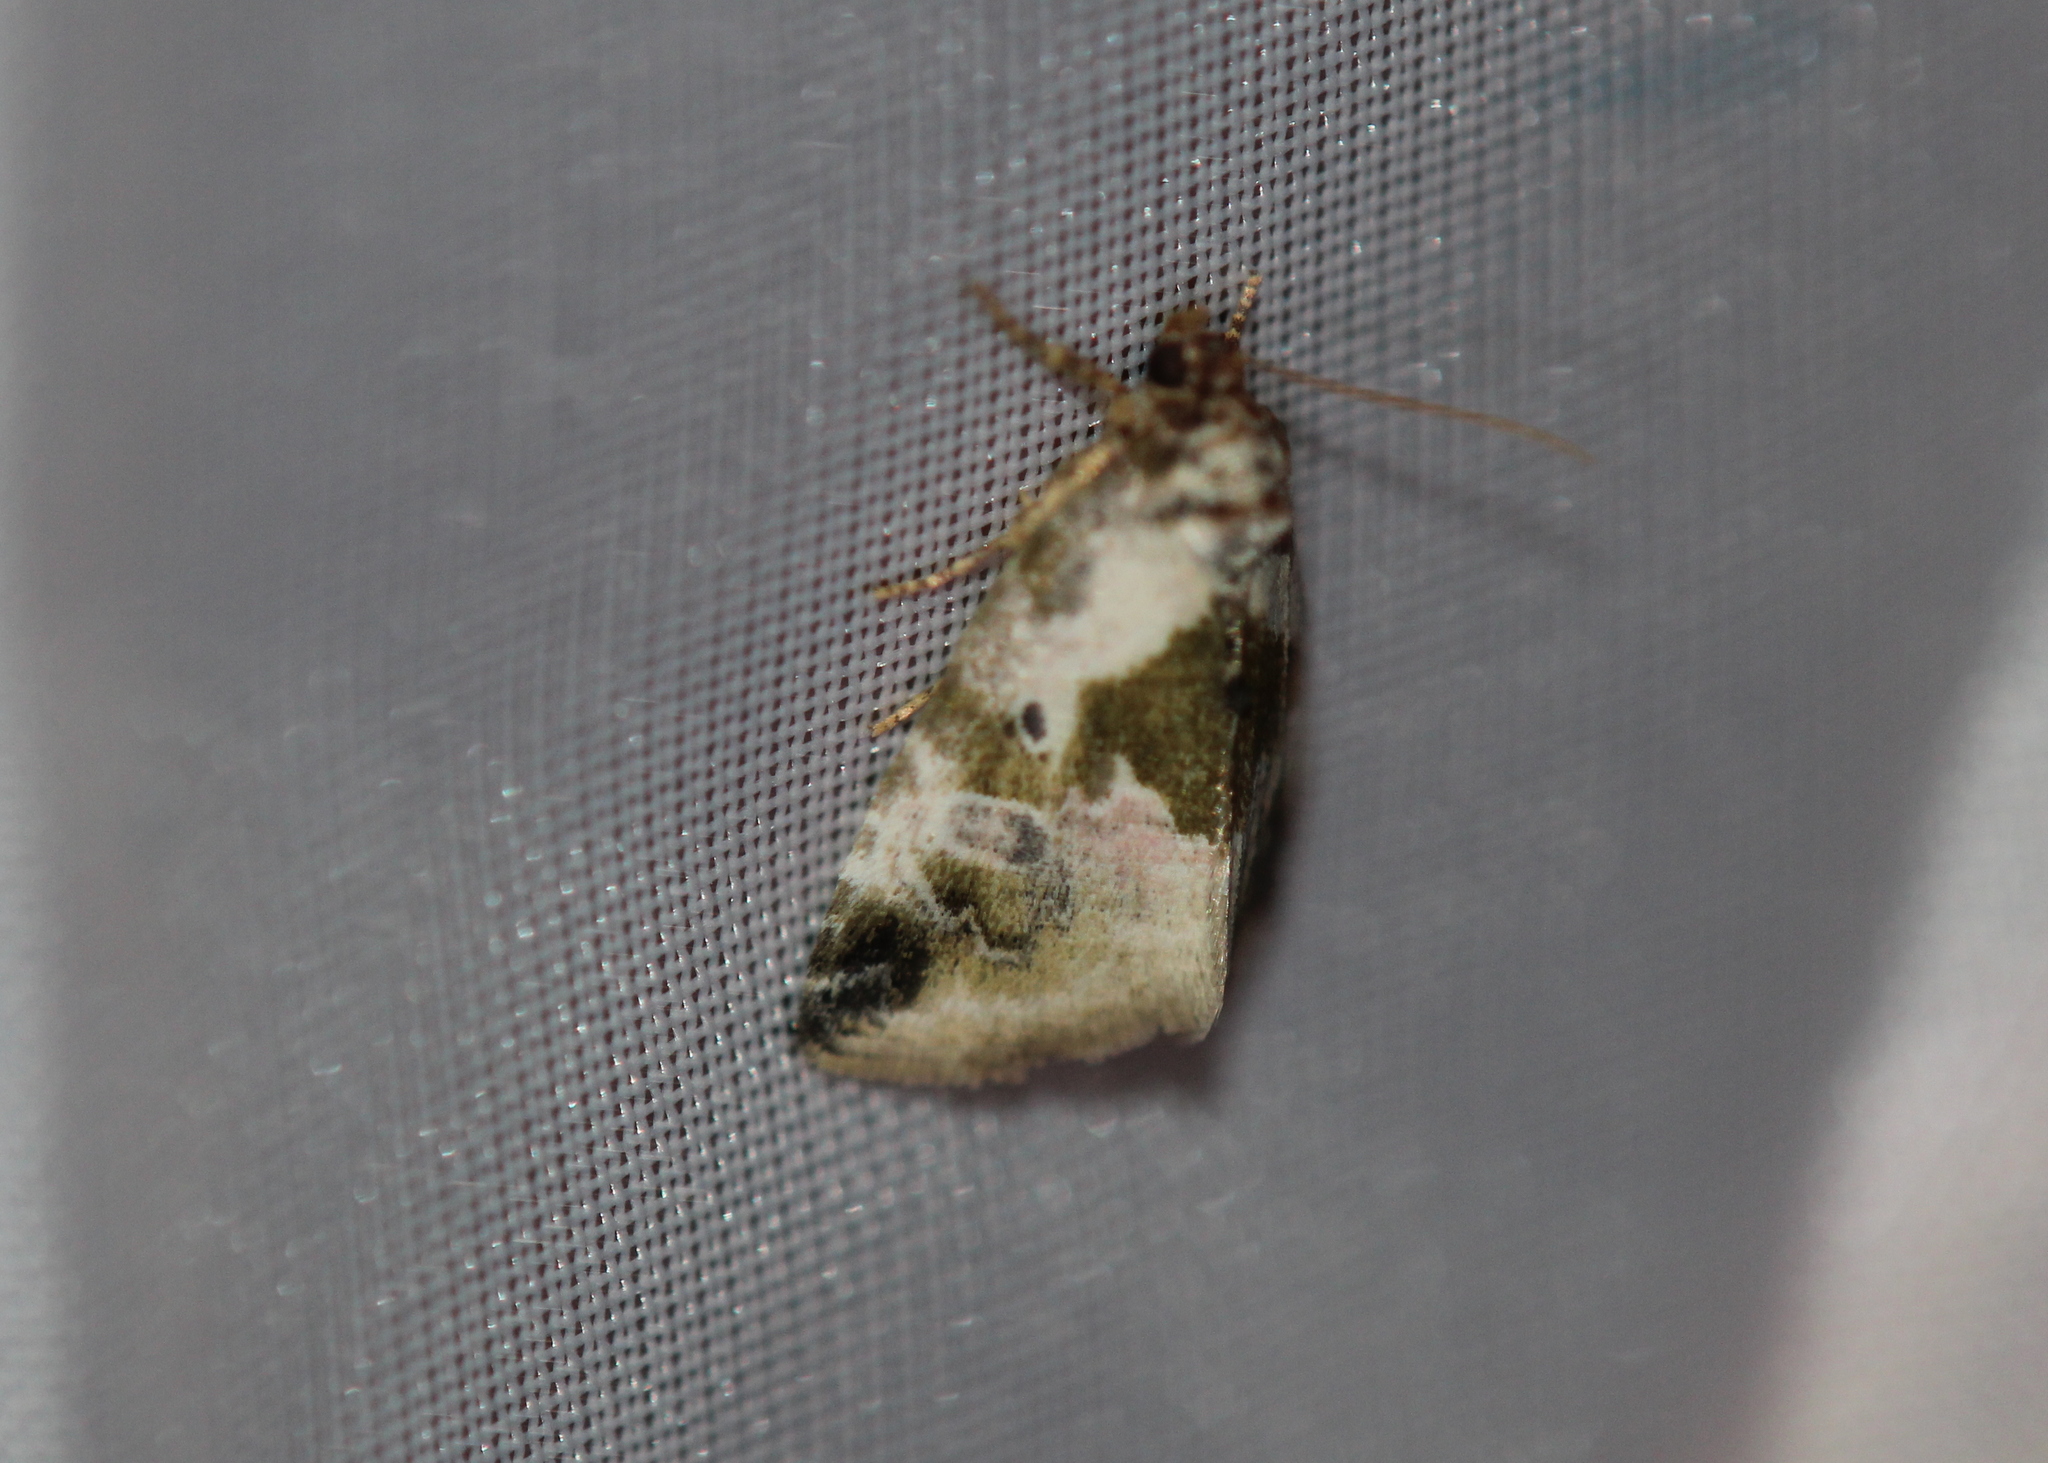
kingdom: Animalia
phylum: Arthropoda
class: Insecta
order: Lepidoptera
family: Noctuidae
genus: Maliattha
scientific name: Maliattha synochitis
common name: Black-dotted glyph
